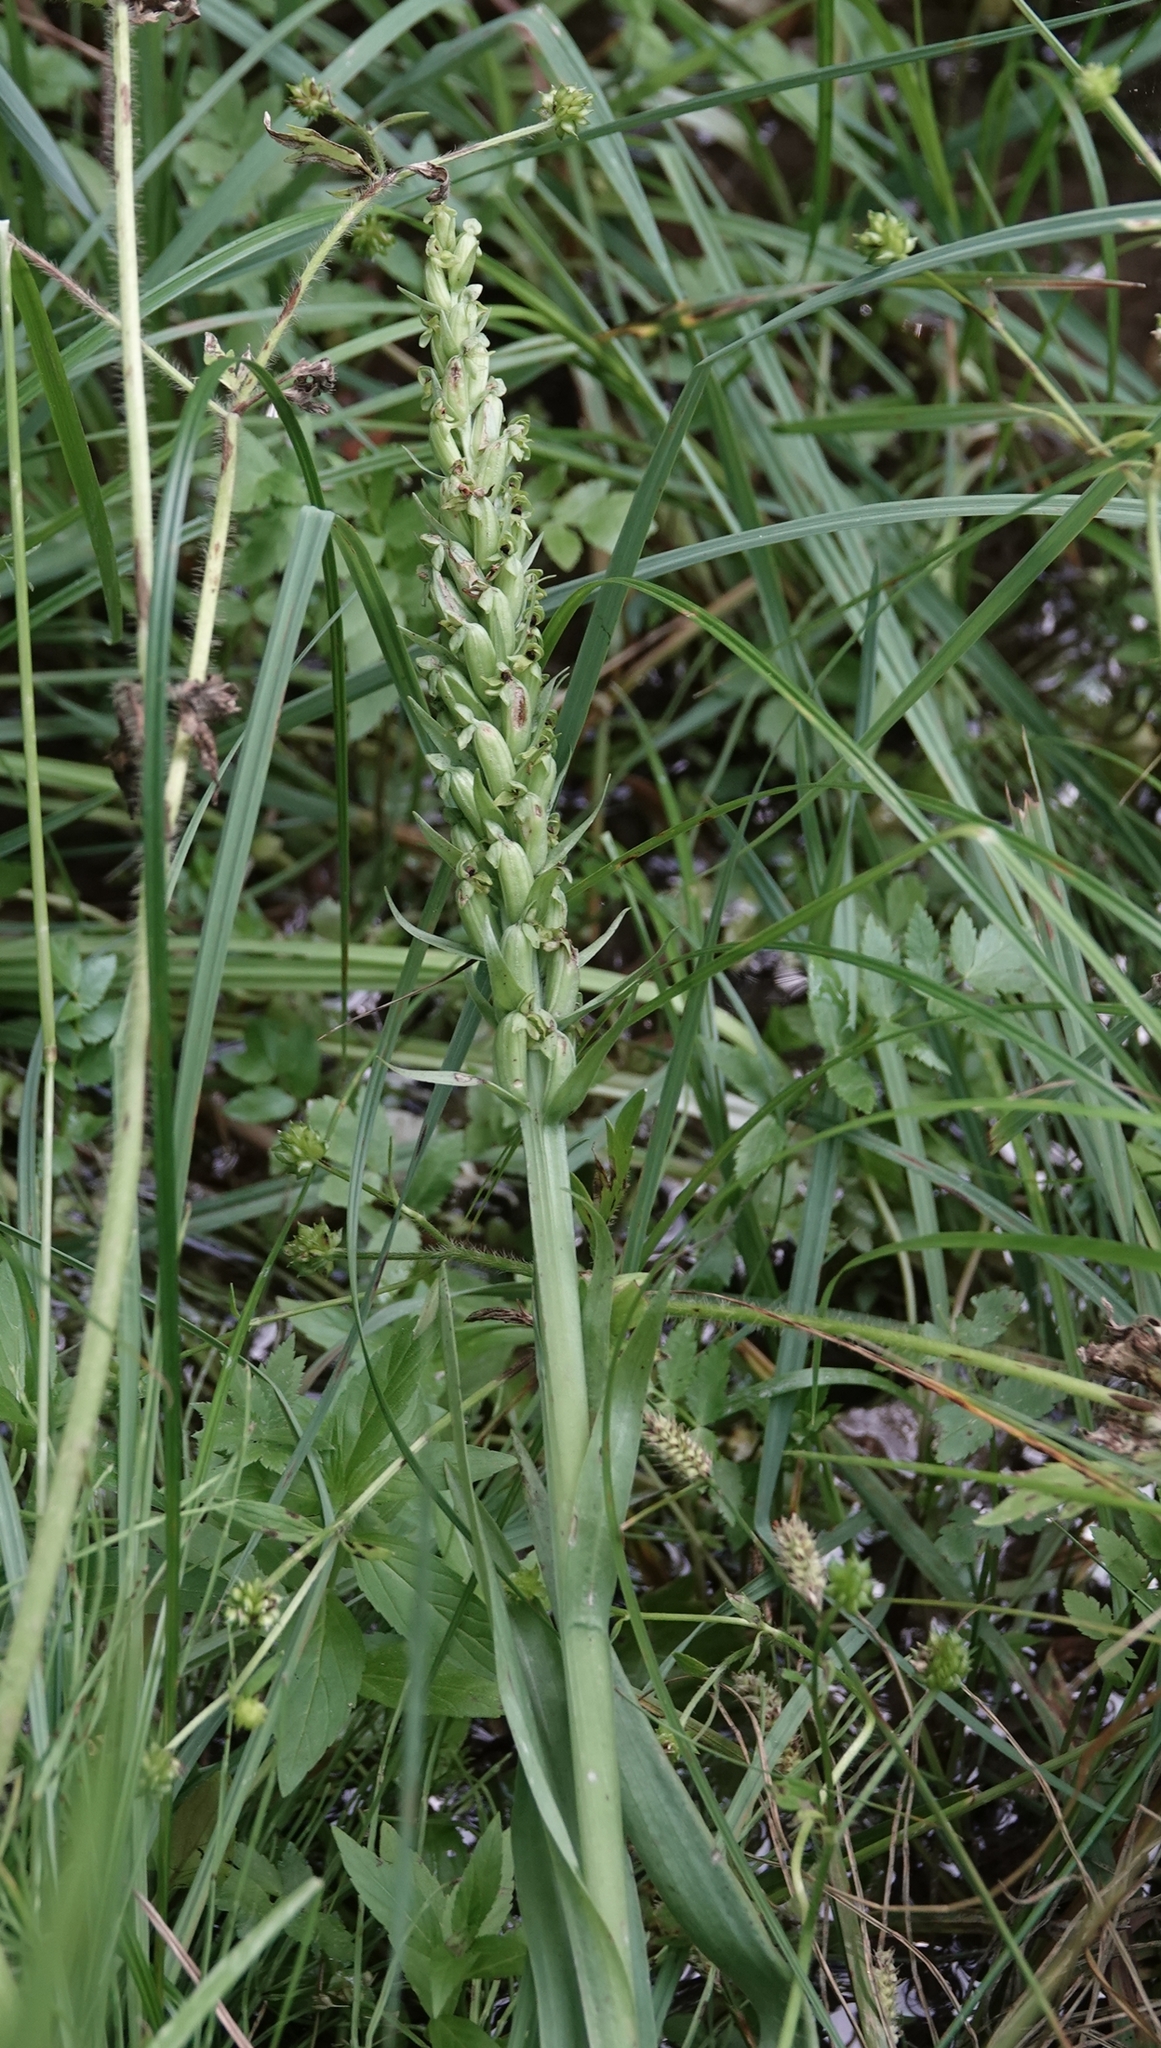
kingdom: Plantae
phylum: Tracheophyta
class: Liliopsida
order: Asparagales
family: Orchidaceae
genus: Platanthera
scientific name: Platanthera aquilonis
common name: Northern green orchid
